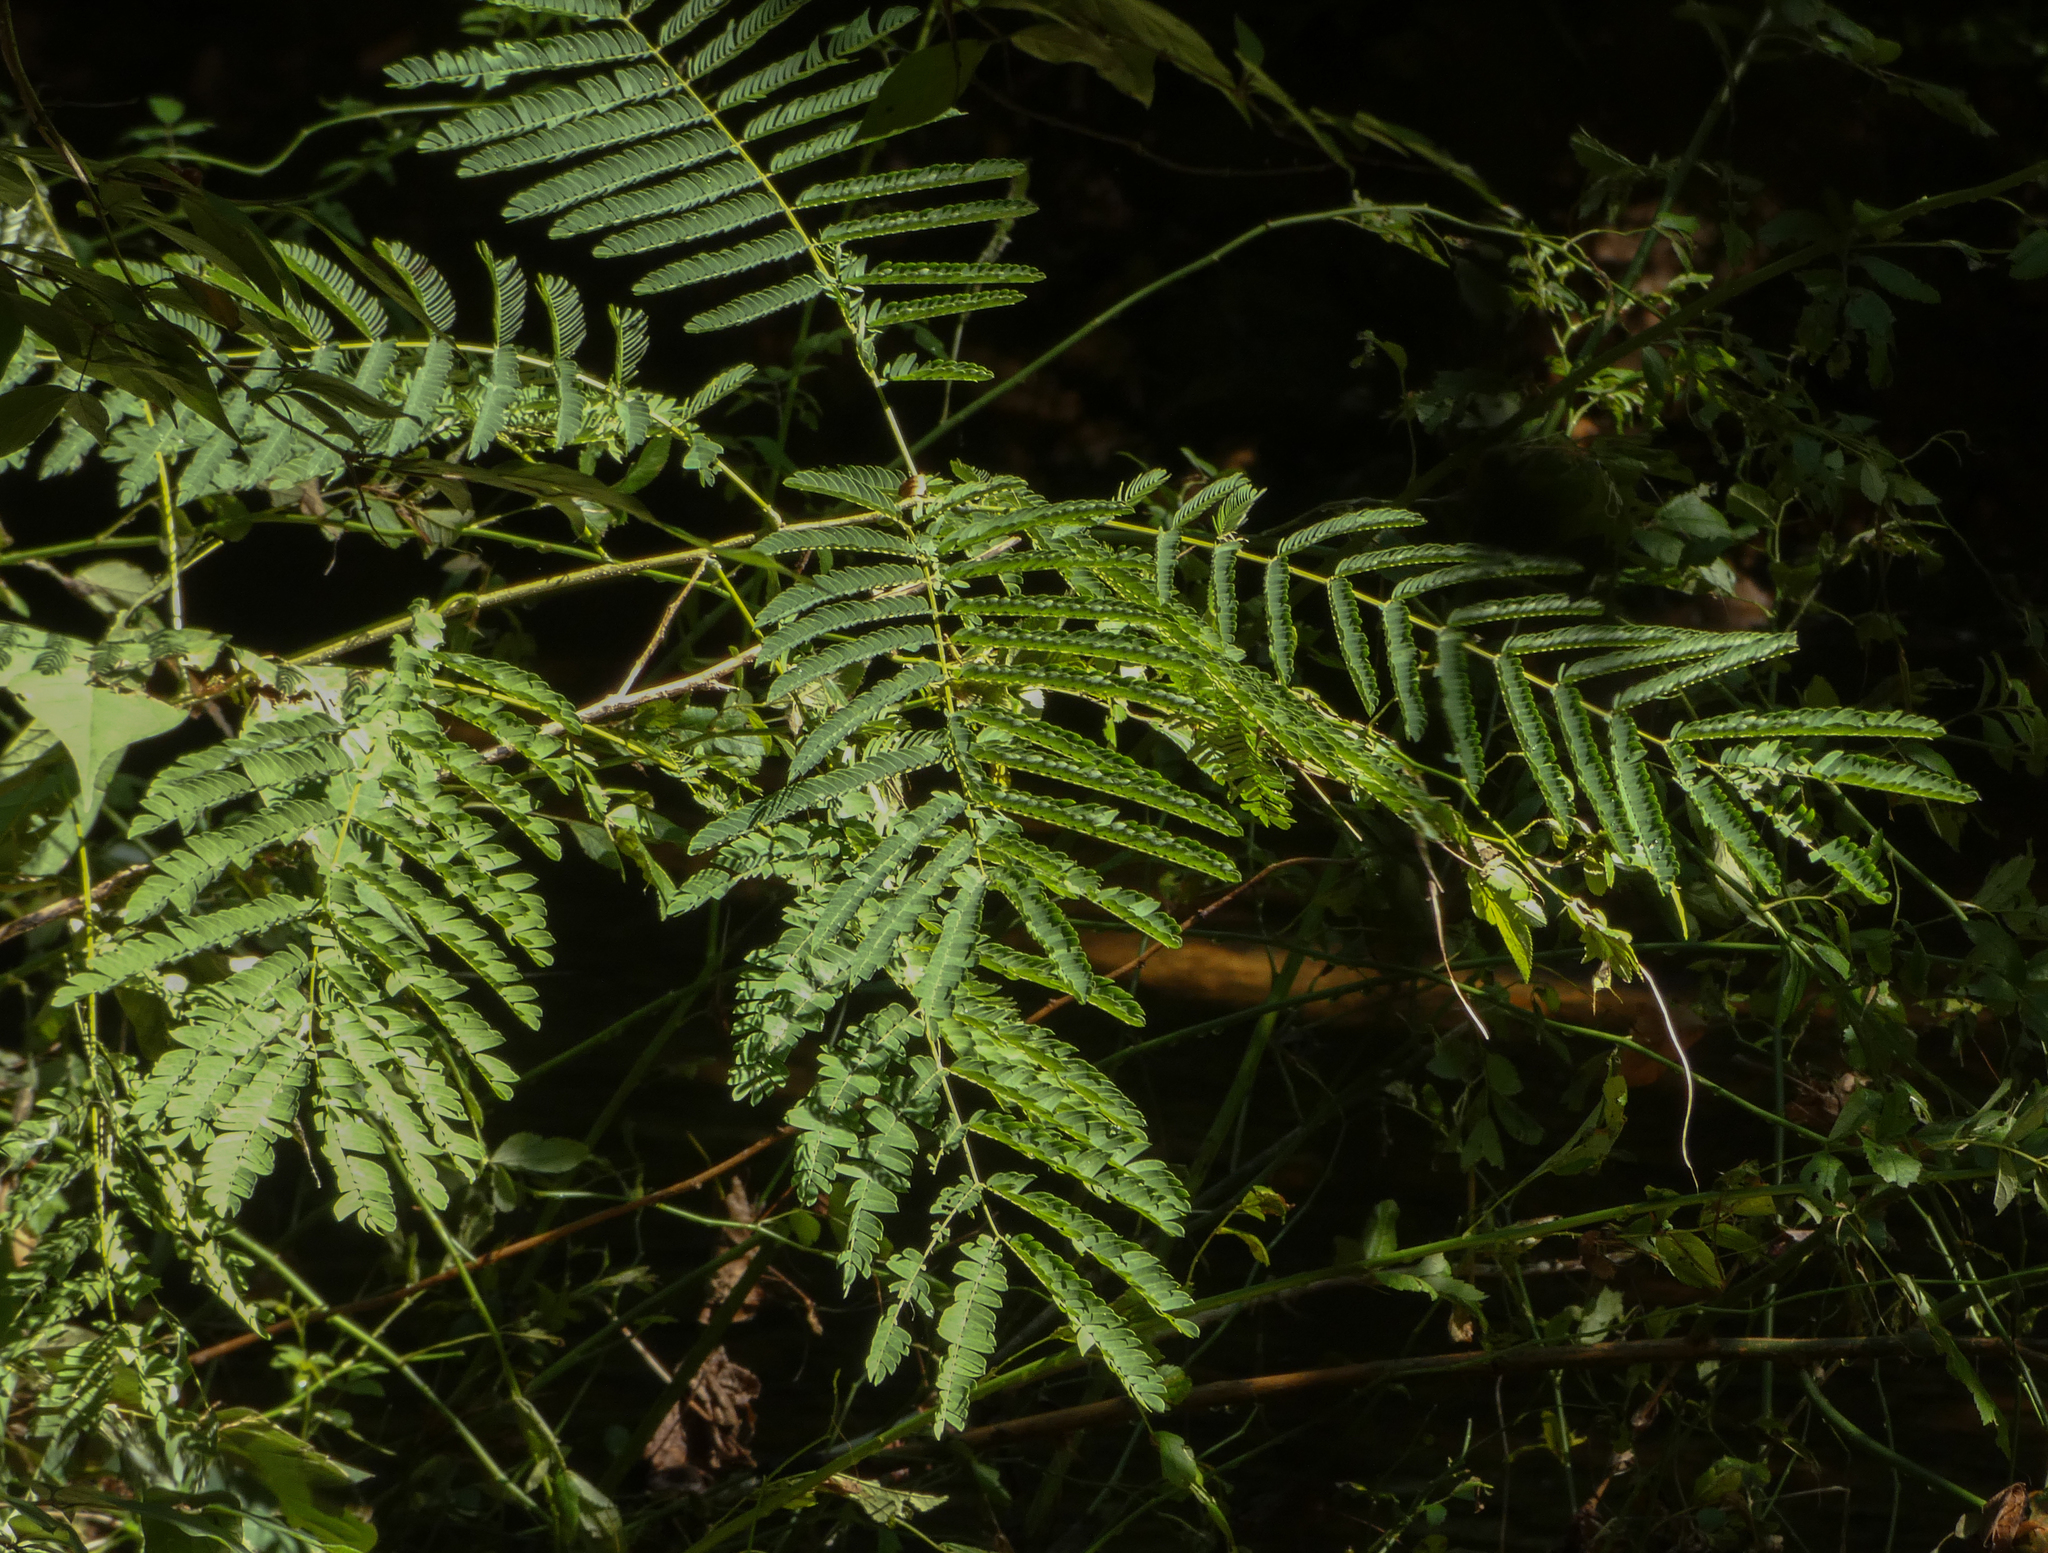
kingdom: Plantae
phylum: Tracheophyta
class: Magnoliopsida
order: Fabales
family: Fabaceae
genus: Albizia
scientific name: Albizia julibrissin
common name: Silktree
